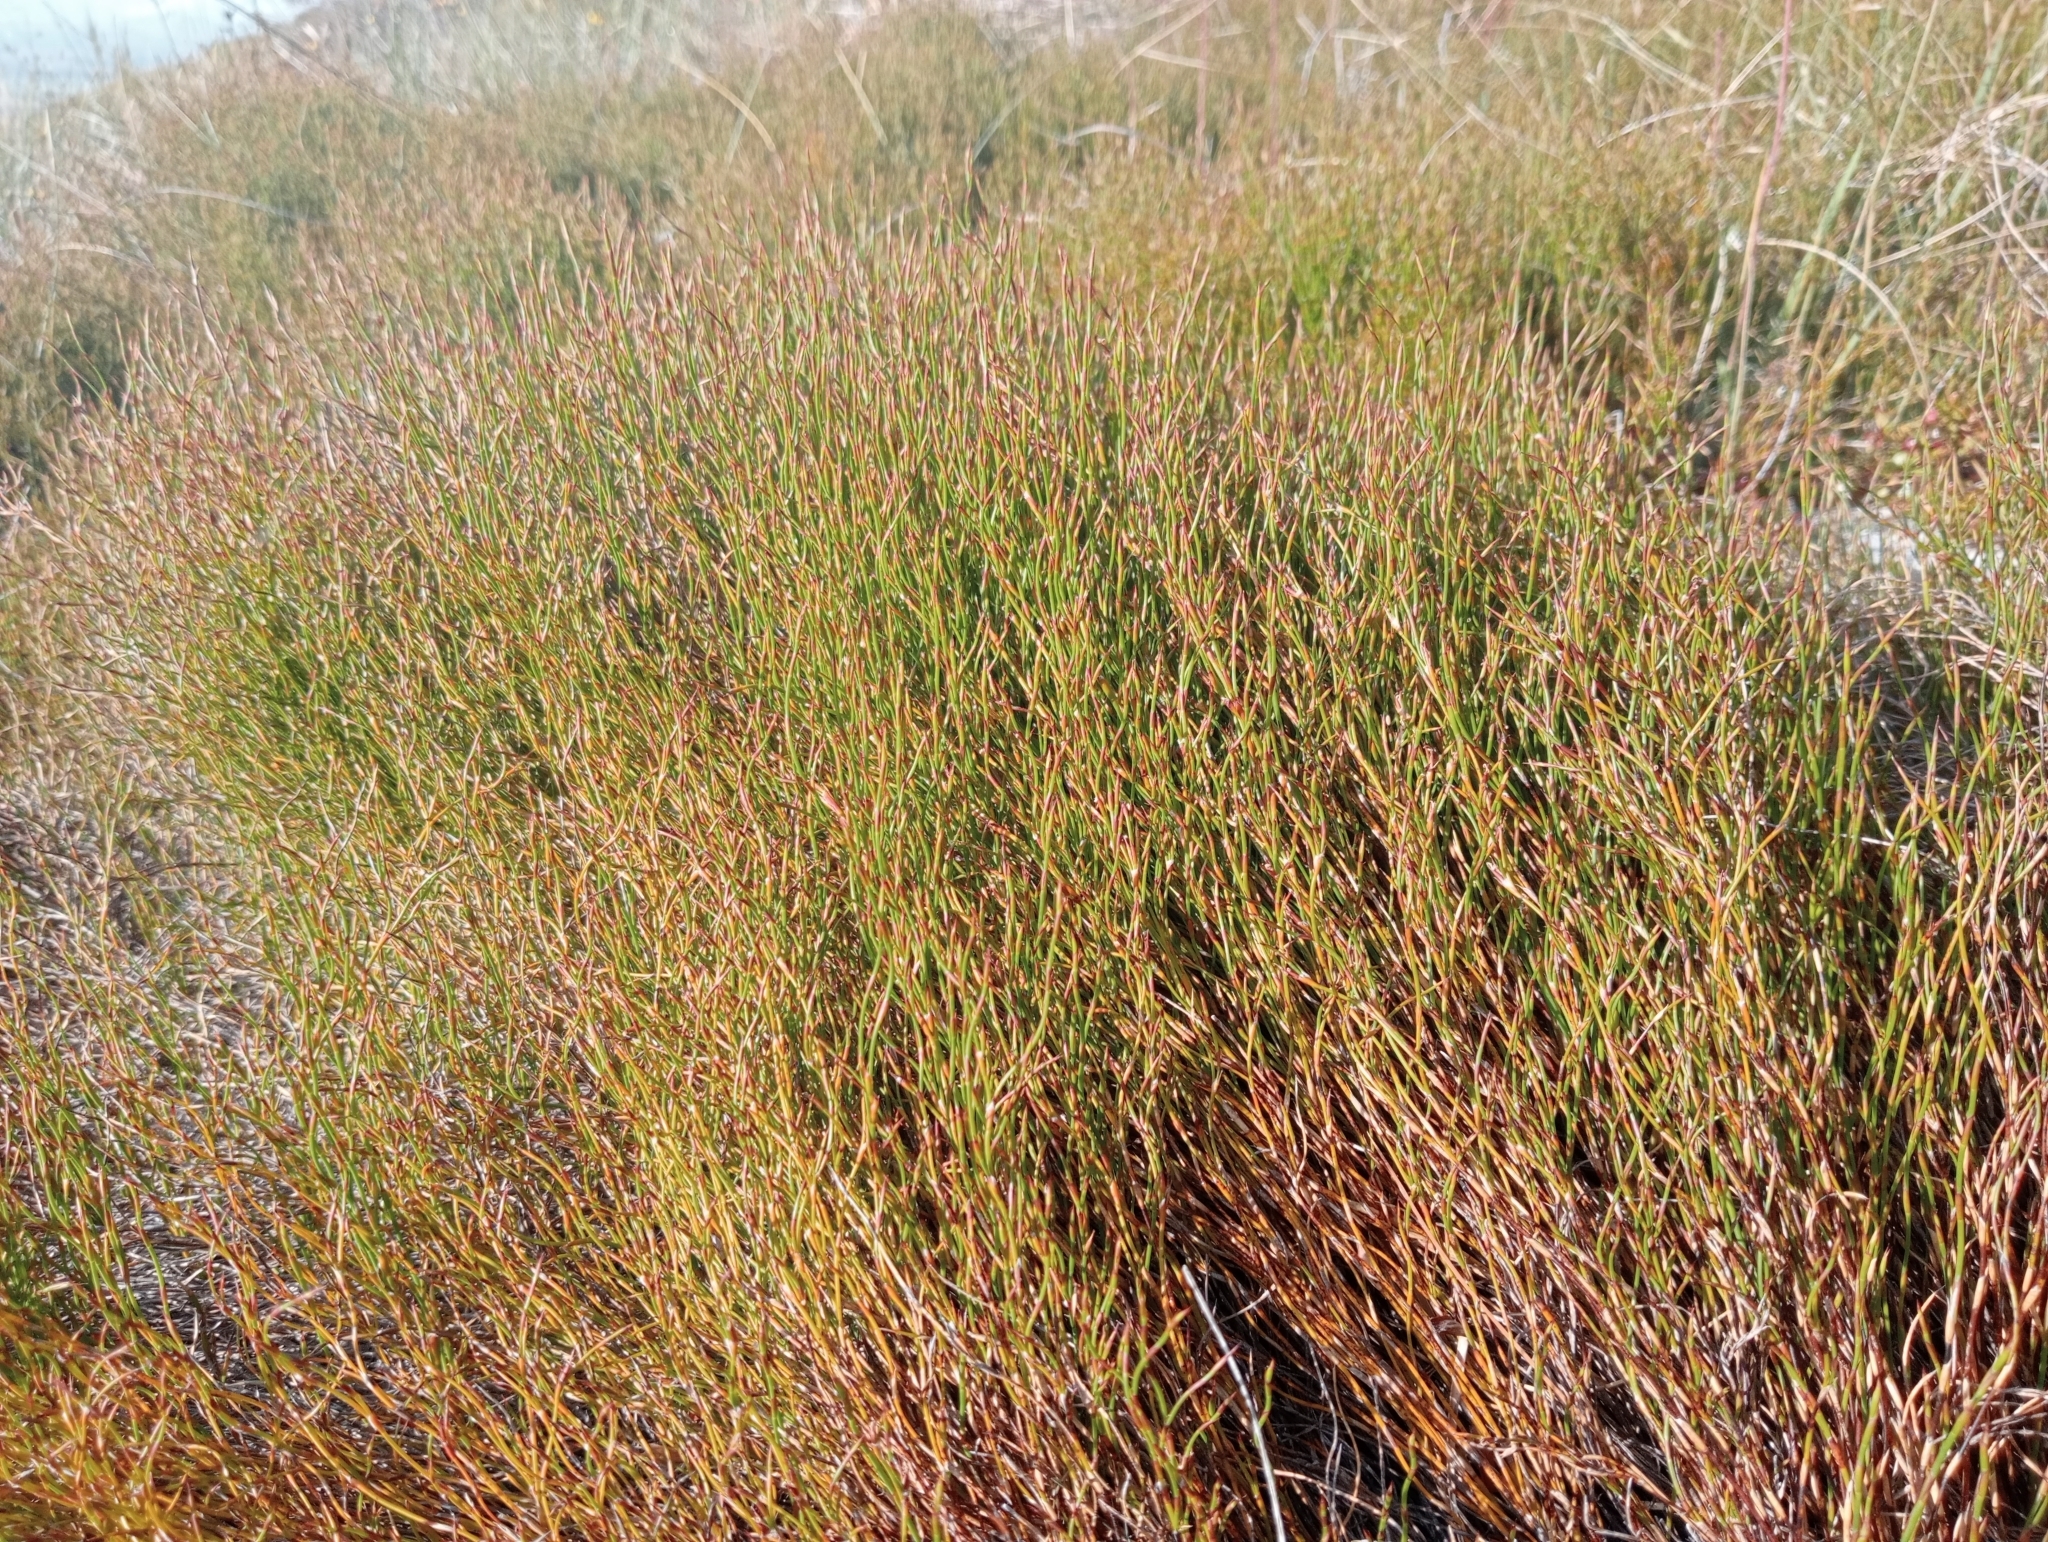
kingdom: Plantae
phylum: Tracheophyta
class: Liliopsida
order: Poales
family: Restionaceae
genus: Empodisma
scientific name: Empodisma minus
